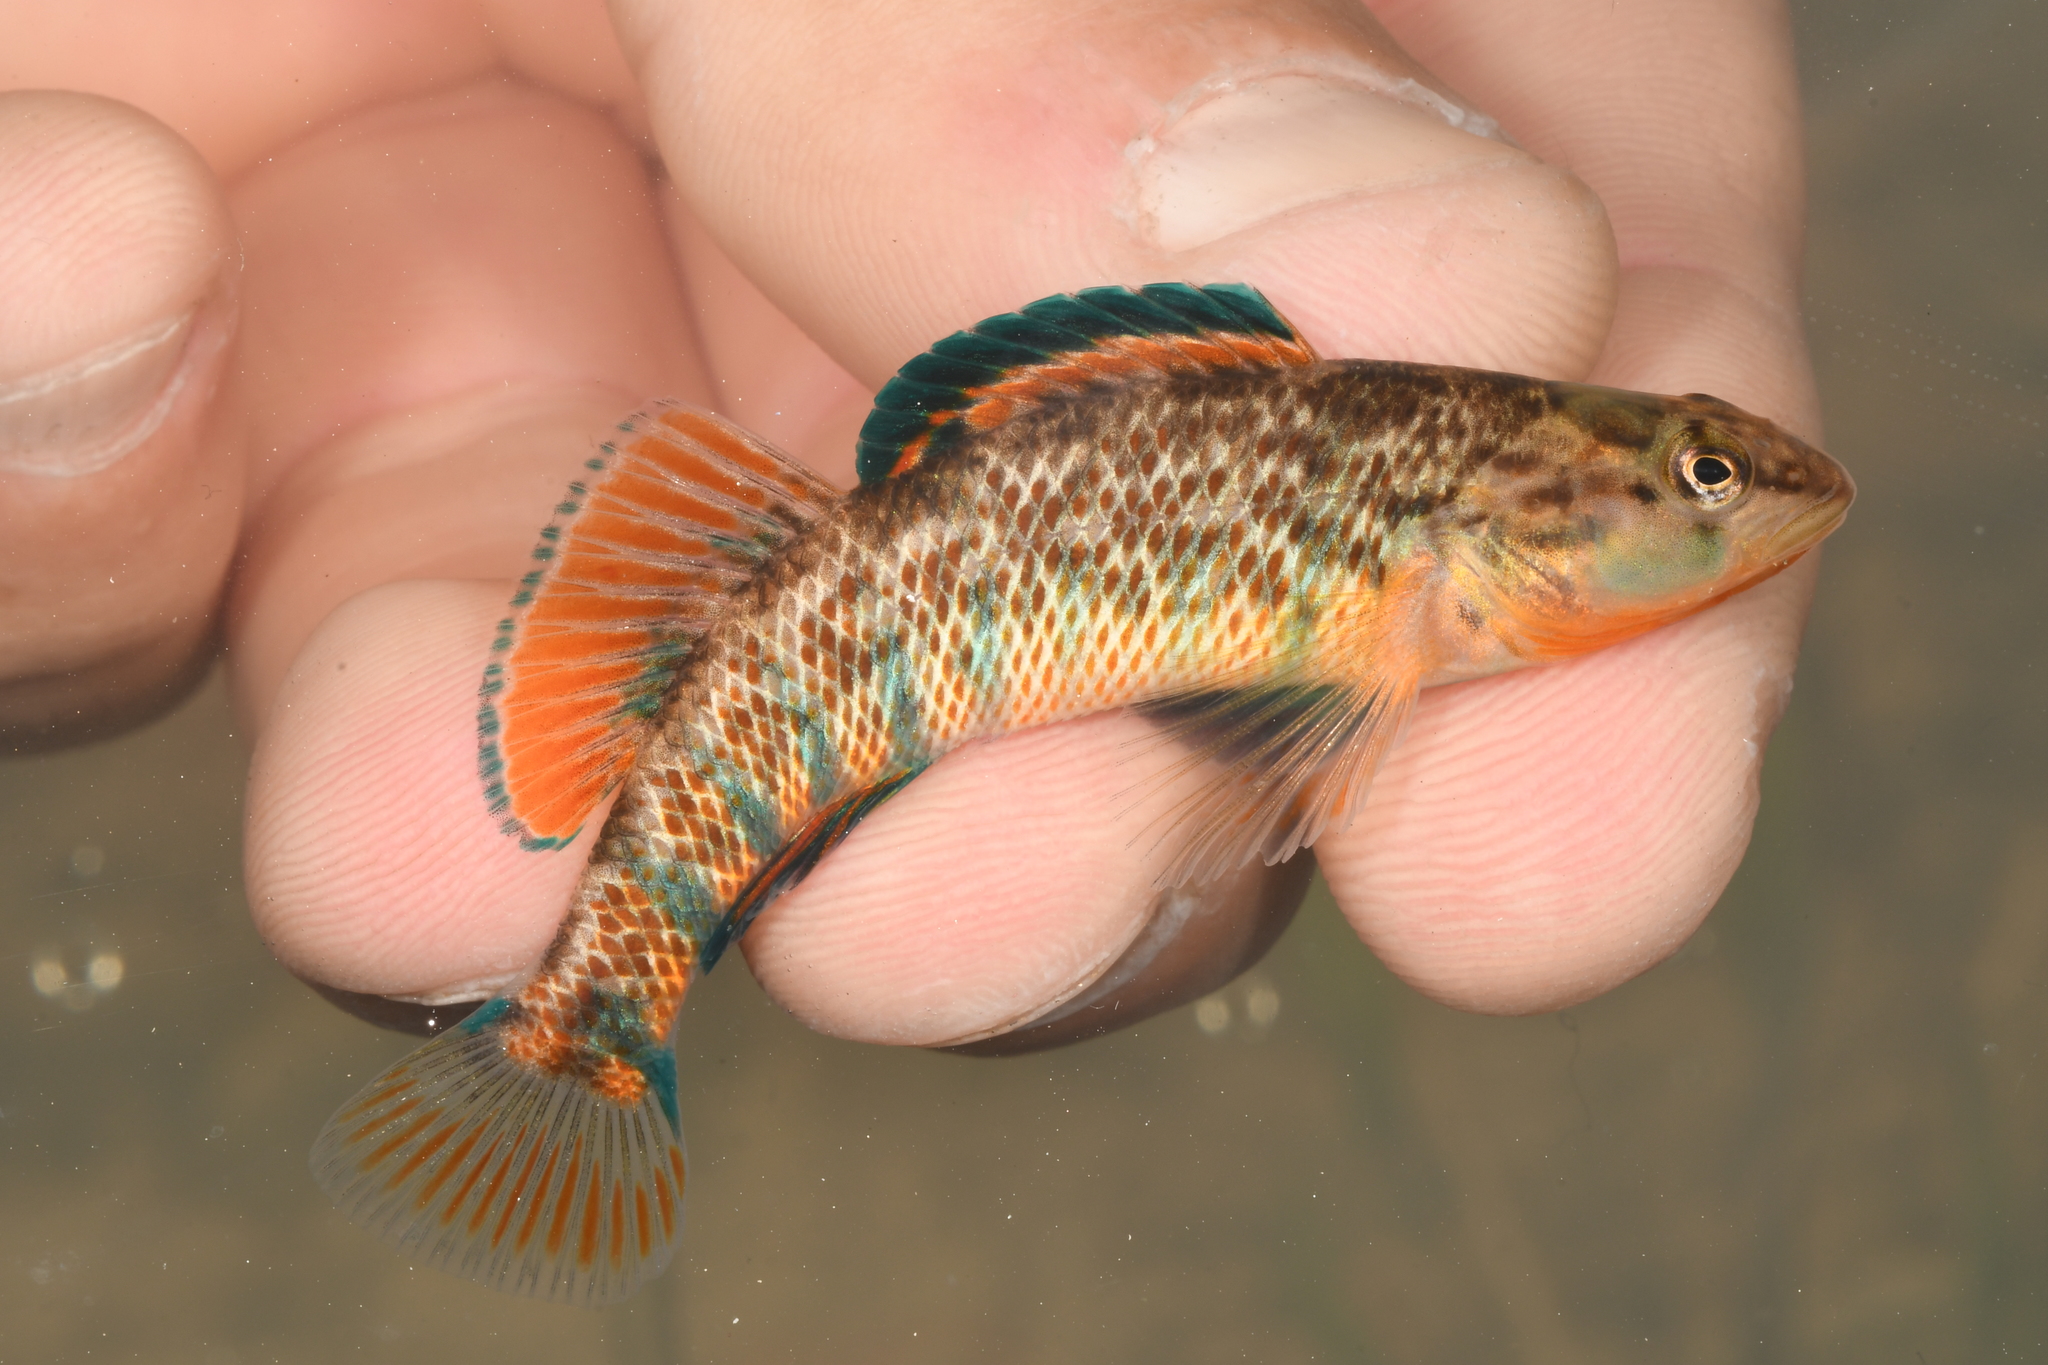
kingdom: Animalia
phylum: Chordata
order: Perciformes
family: Percidae
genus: Etheostoma
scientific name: Etheostoma caeruleum
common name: Rainbow darter
